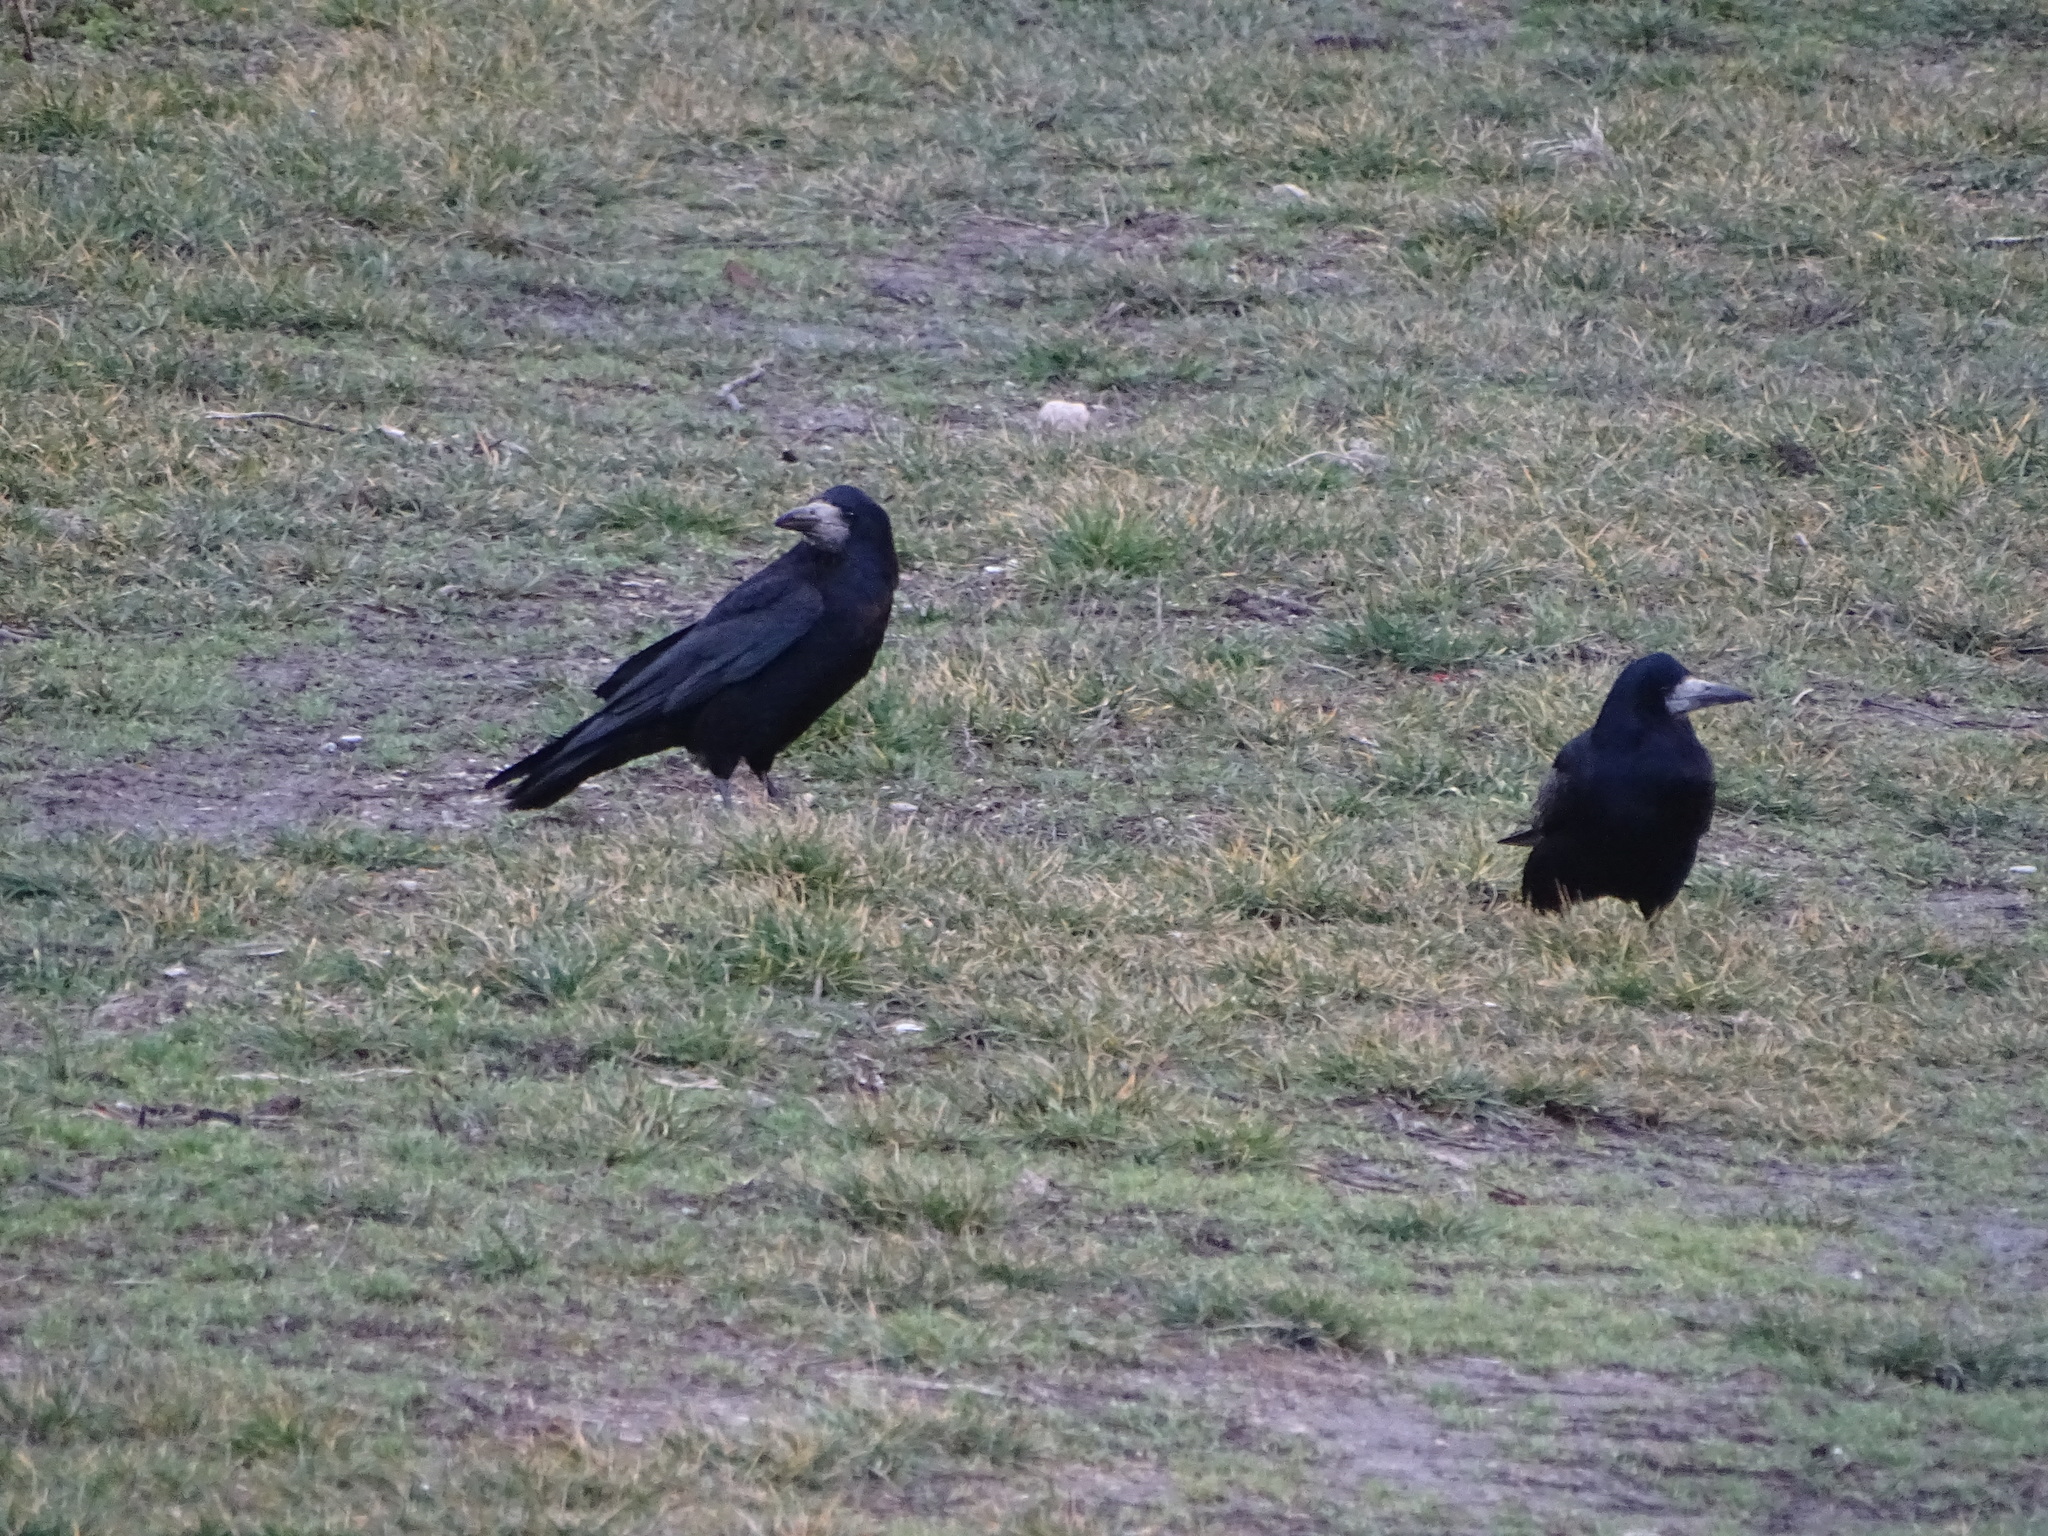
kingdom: Animalia
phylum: Chordata
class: Aves
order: Passeriformes
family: Corvidae
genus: Corvus
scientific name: Corvus frugilegus
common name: Rook
